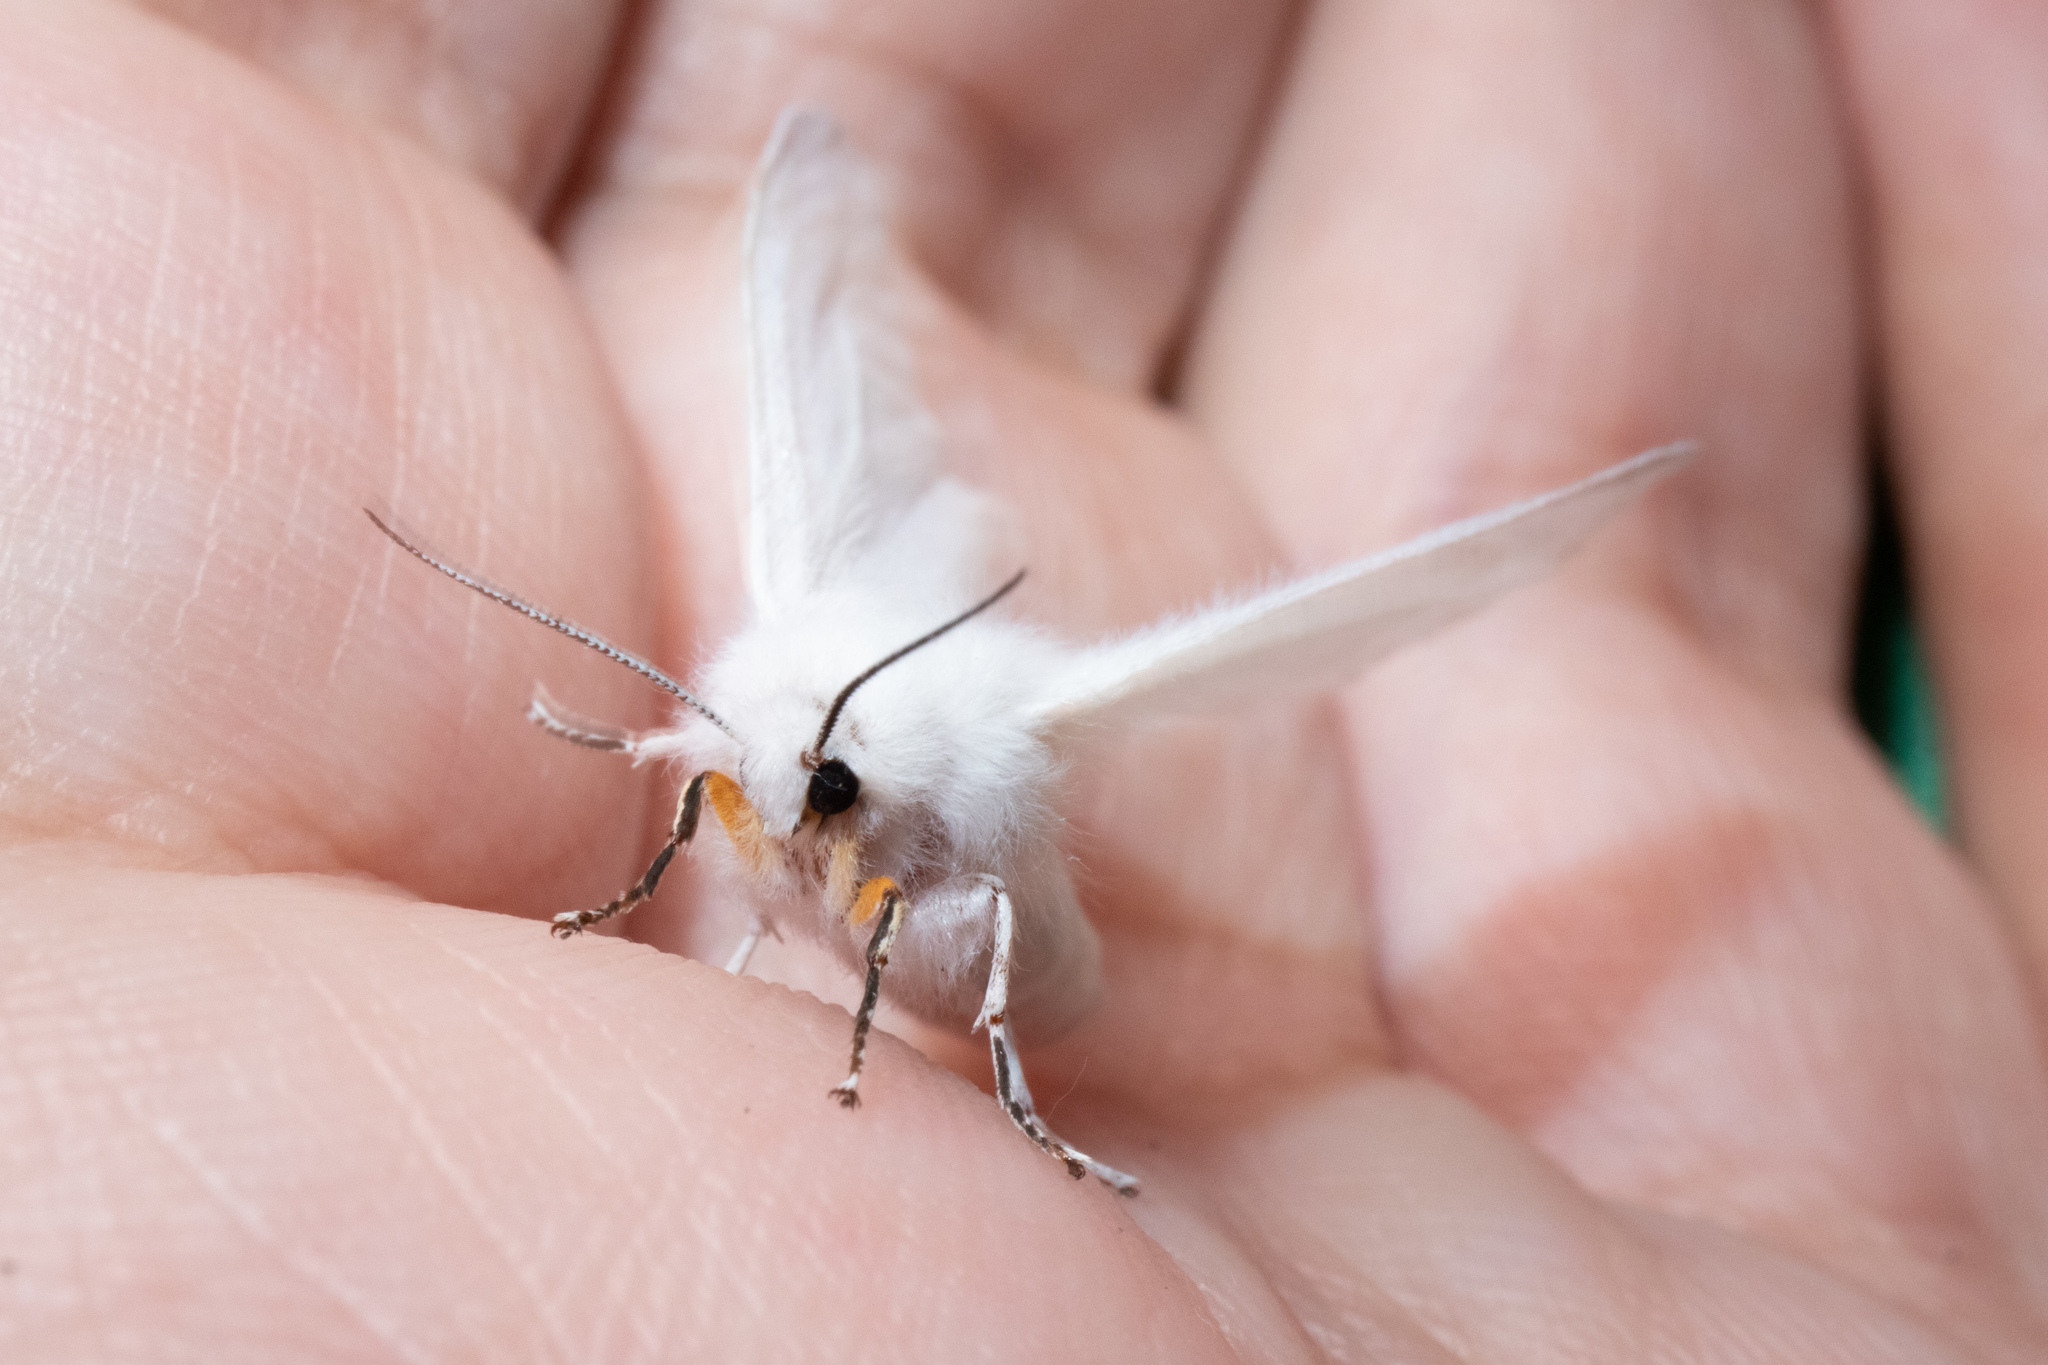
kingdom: Animalia
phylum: Arthropoda
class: Insecta
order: Lepidoptera
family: Erebidae
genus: Spilosoma
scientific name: Spilosoma congrua
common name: Agreeable tiger moth
